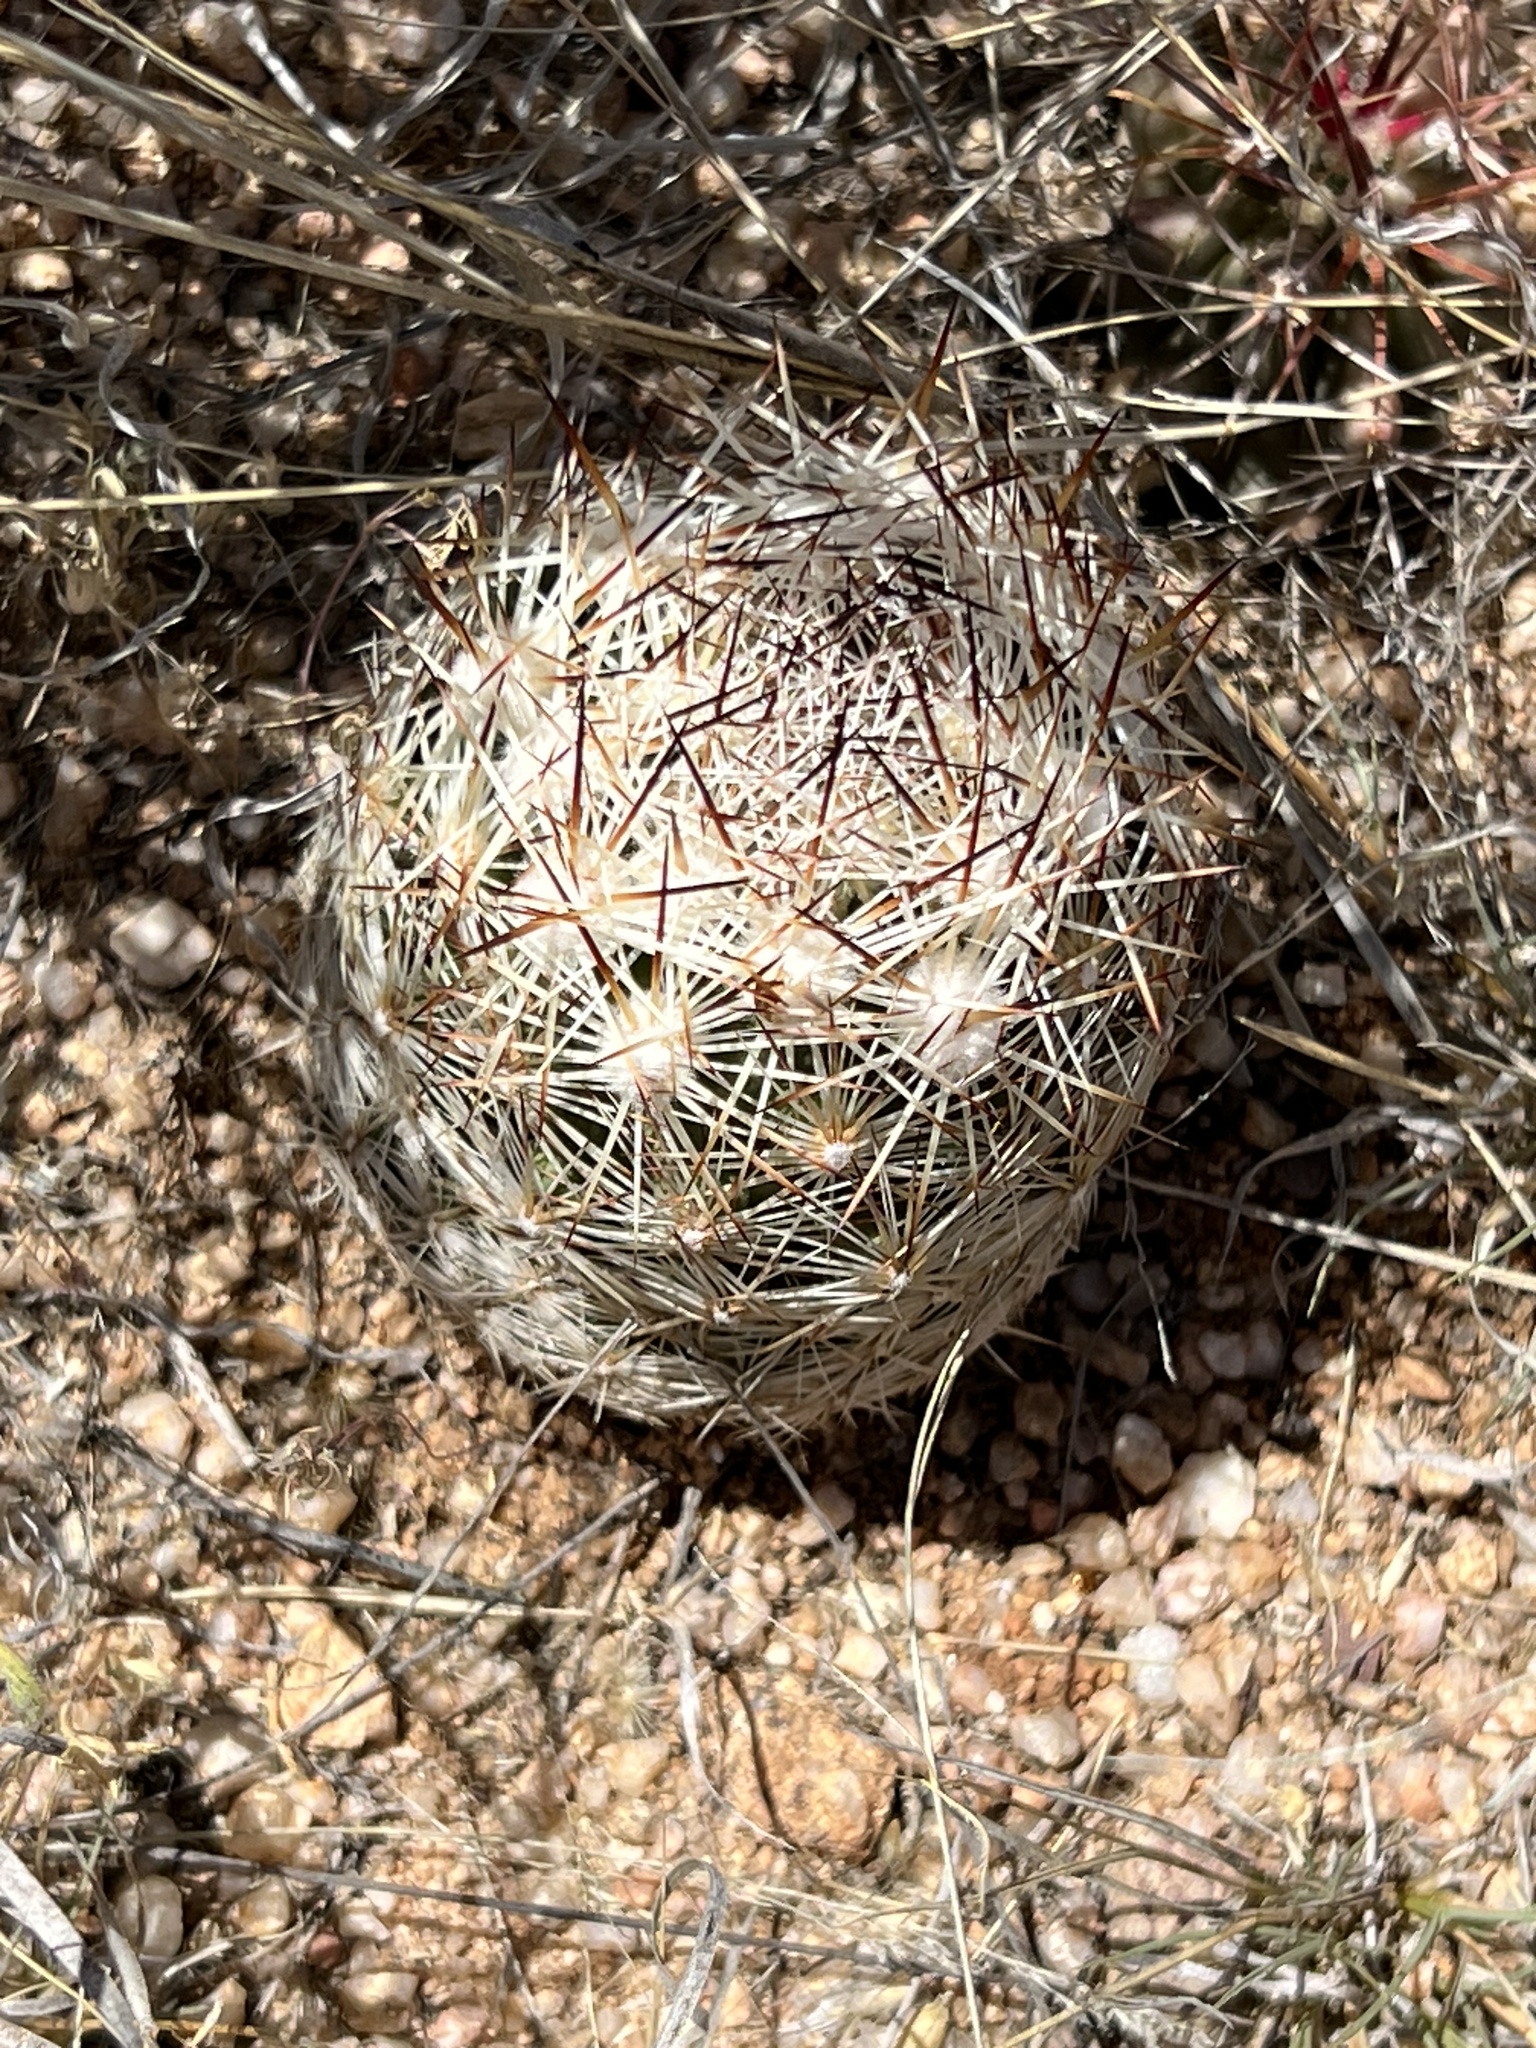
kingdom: Plantae
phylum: Tracheophyta
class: Magnoliopsida
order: Caryophyllales
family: Cactaceae
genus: Pelecyphora
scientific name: Pelecyphora vivipara
